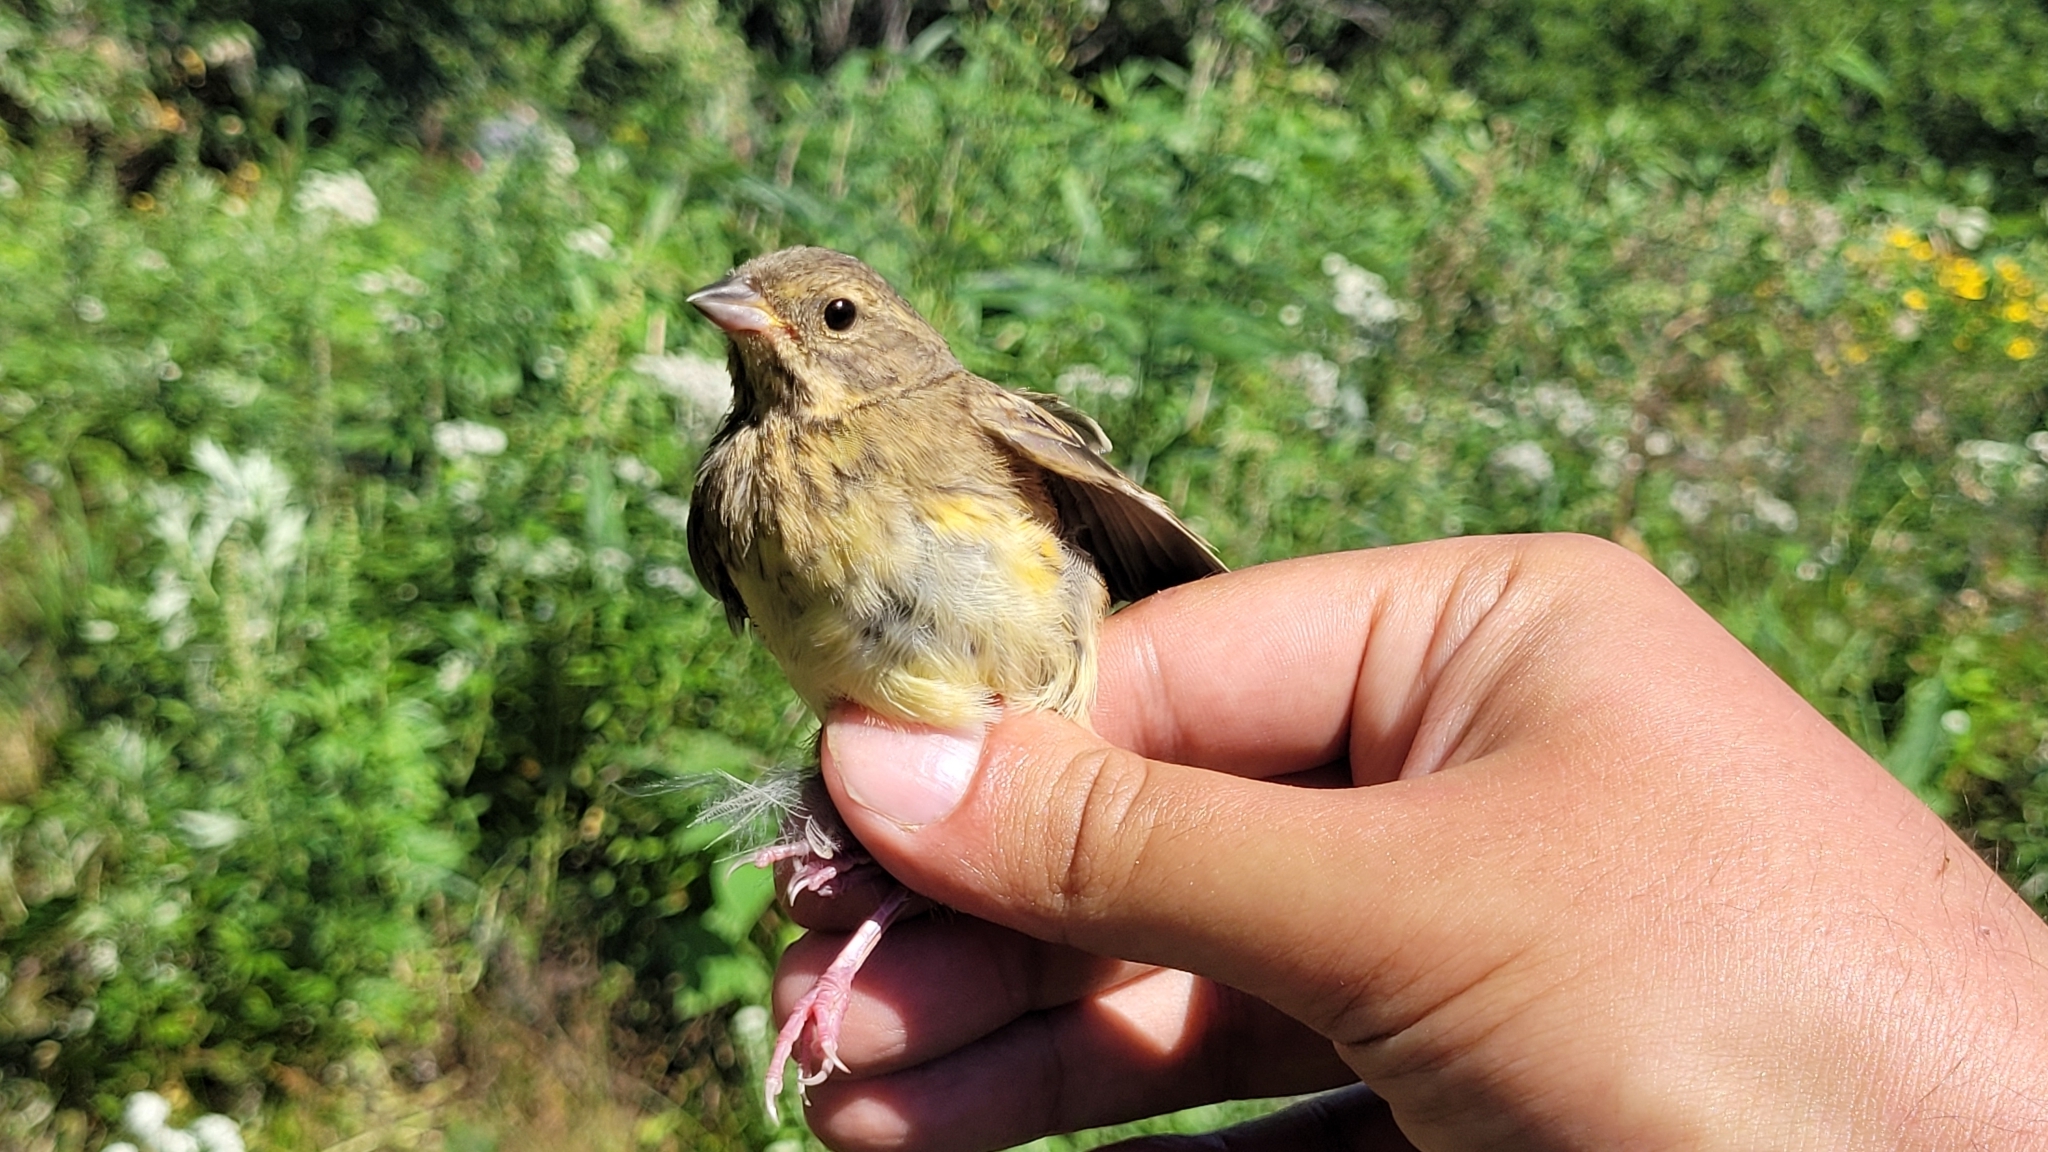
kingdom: Animalia
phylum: Chordata
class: Aves
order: Passeriformes
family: Emberizidae
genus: Emberiza
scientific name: Emberiza personata
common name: Masked bunting
